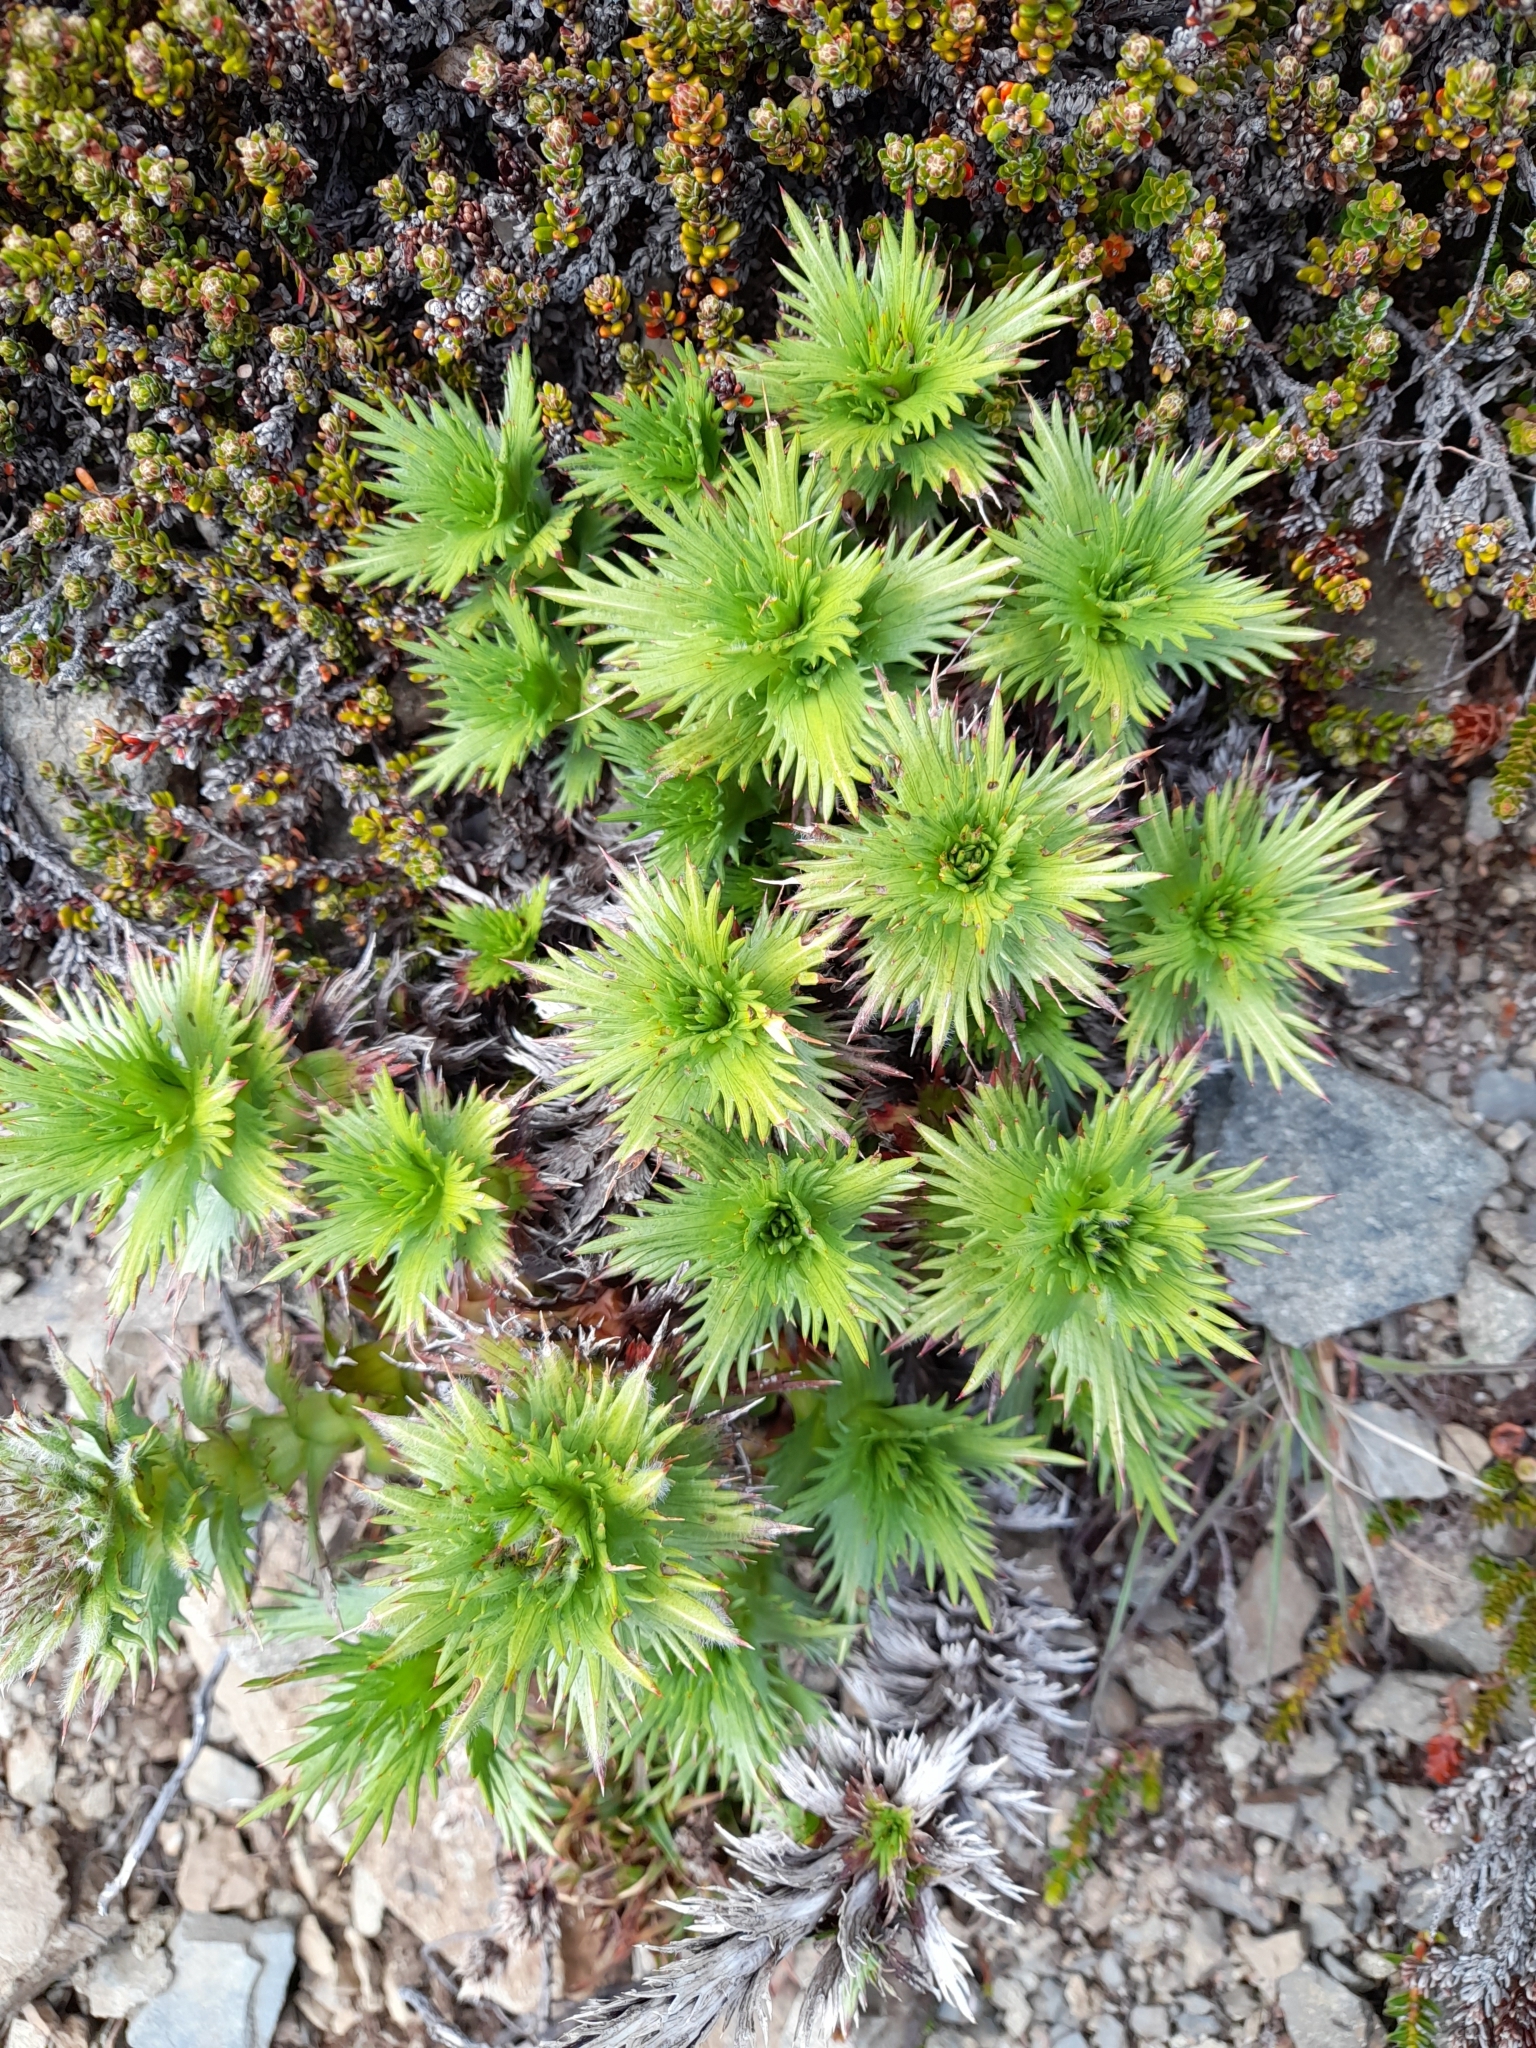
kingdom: Plantae
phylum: Tracheophyta
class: Magnoliopsida
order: Asterales
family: Asteraceae
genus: Nassauvia
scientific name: Nassauvia magellanica
